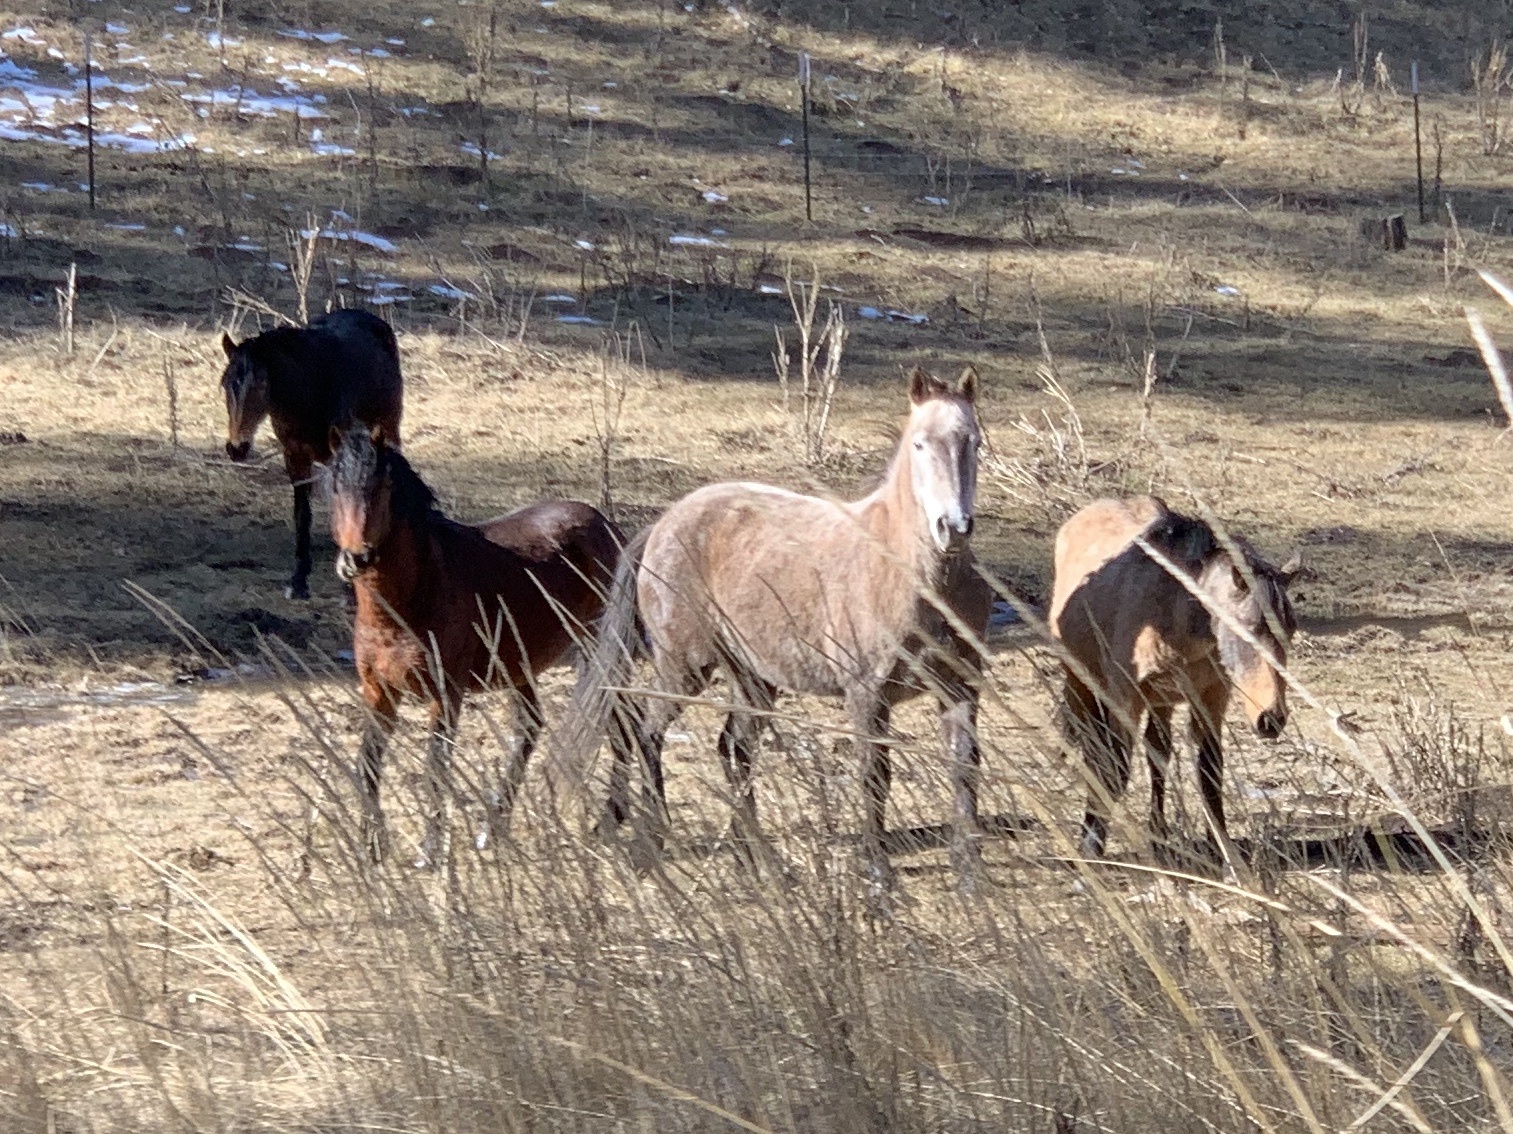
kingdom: Animalia
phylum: Chordata
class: Mammalia
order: Perissodactyla
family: Equidae
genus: Equus
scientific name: Equus caballus
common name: Horse
